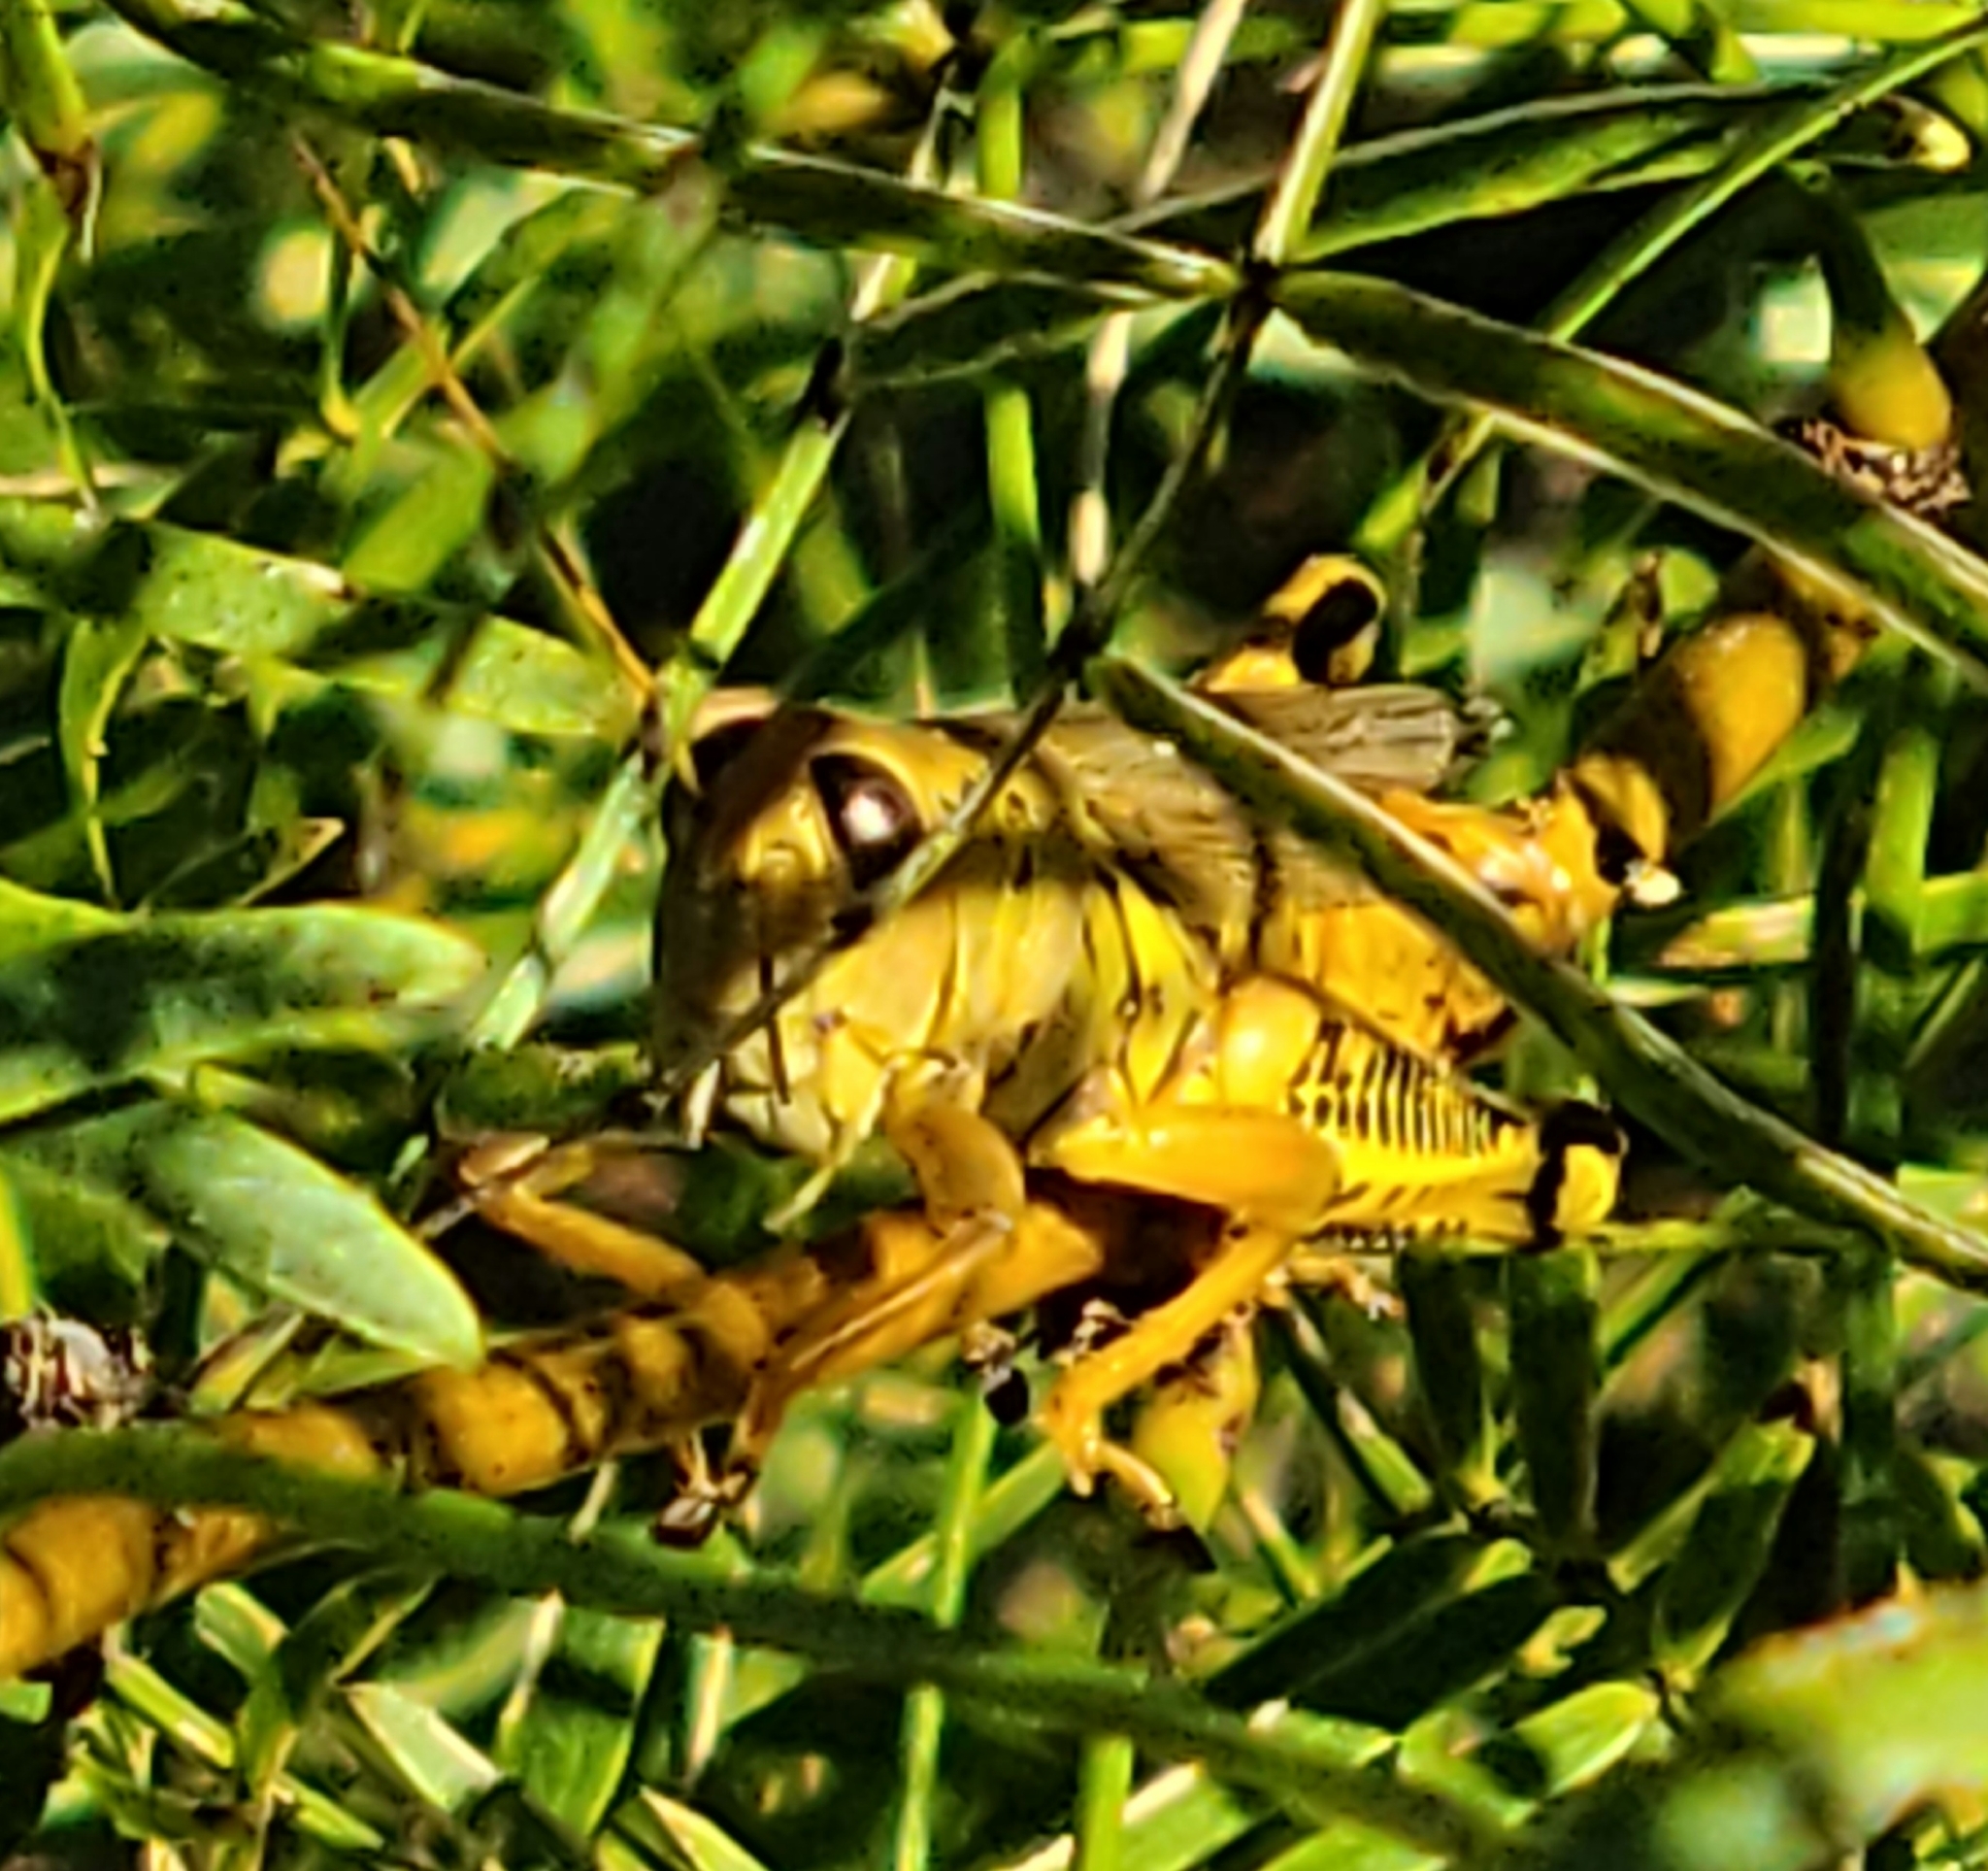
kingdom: Animalia
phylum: Arthropoda
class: Insecta
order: Orthoptera
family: Acrididae
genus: Melanoplus
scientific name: Melanoplus differentialis
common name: Differential grasshopper
